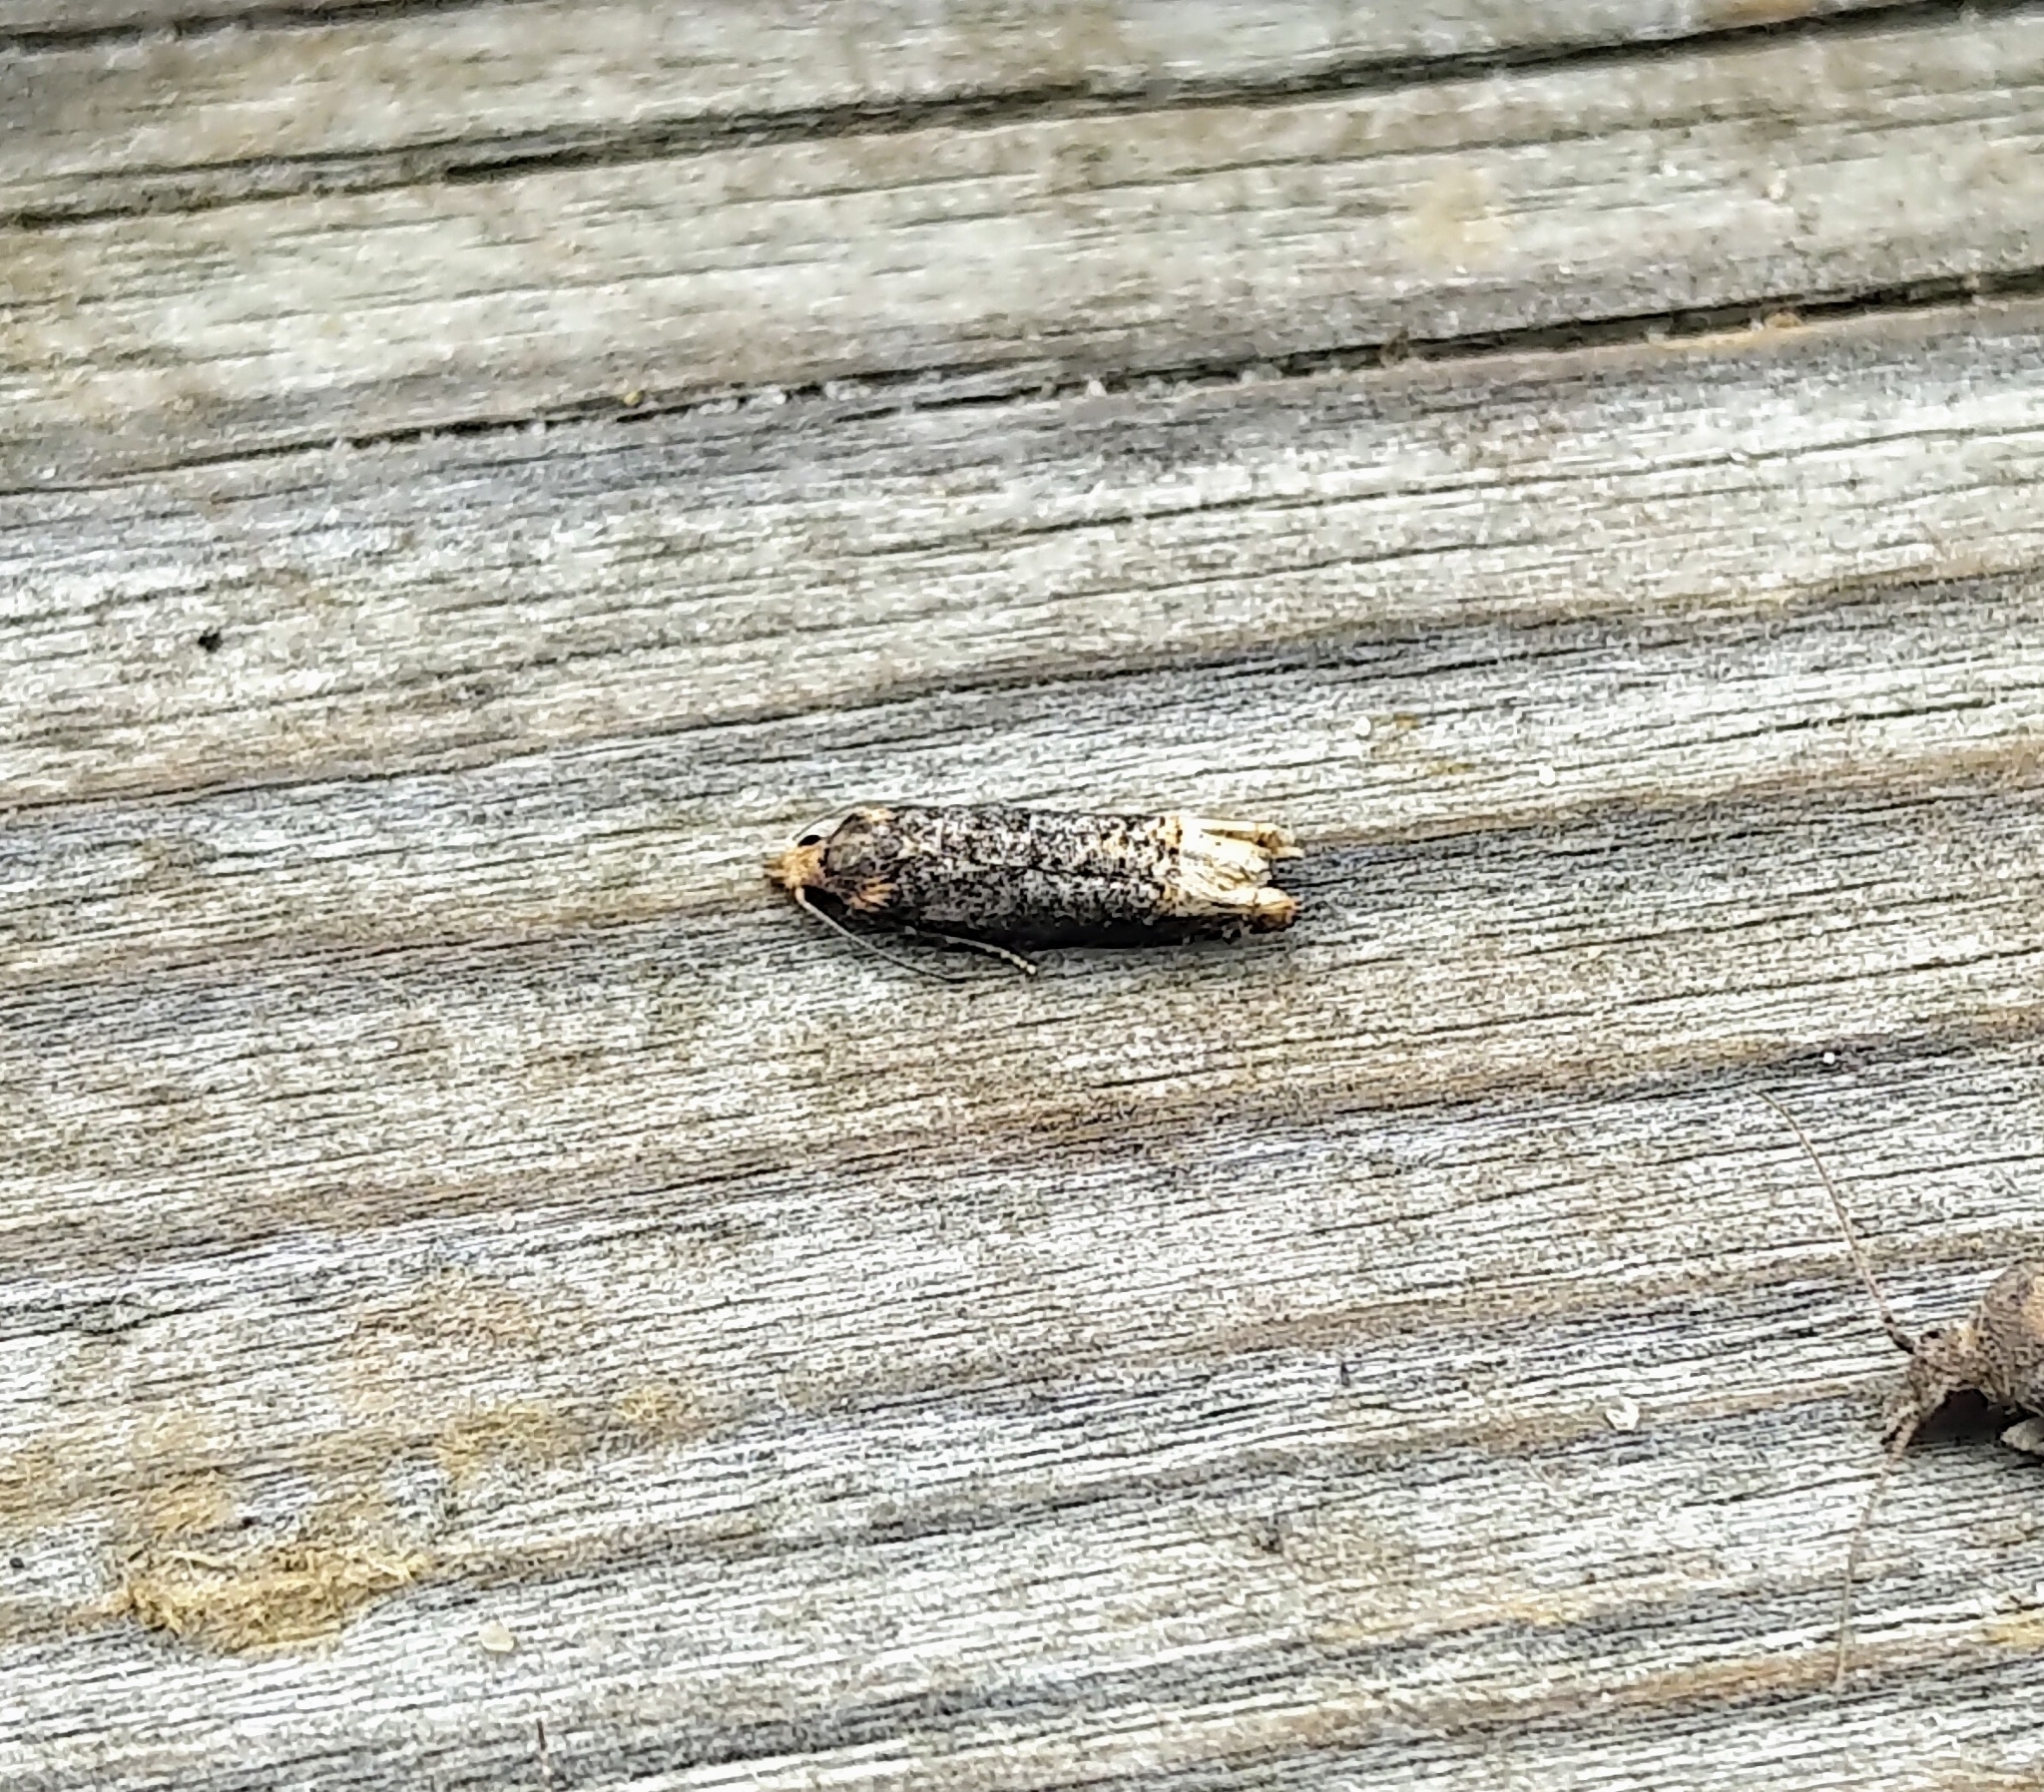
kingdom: Animalia
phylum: Arthropoda
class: Insecta
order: Lepidoptera
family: Tortricidae
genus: Eucosma
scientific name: Eucosma ochroterminana
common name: Buff-tipped eucosma moth
